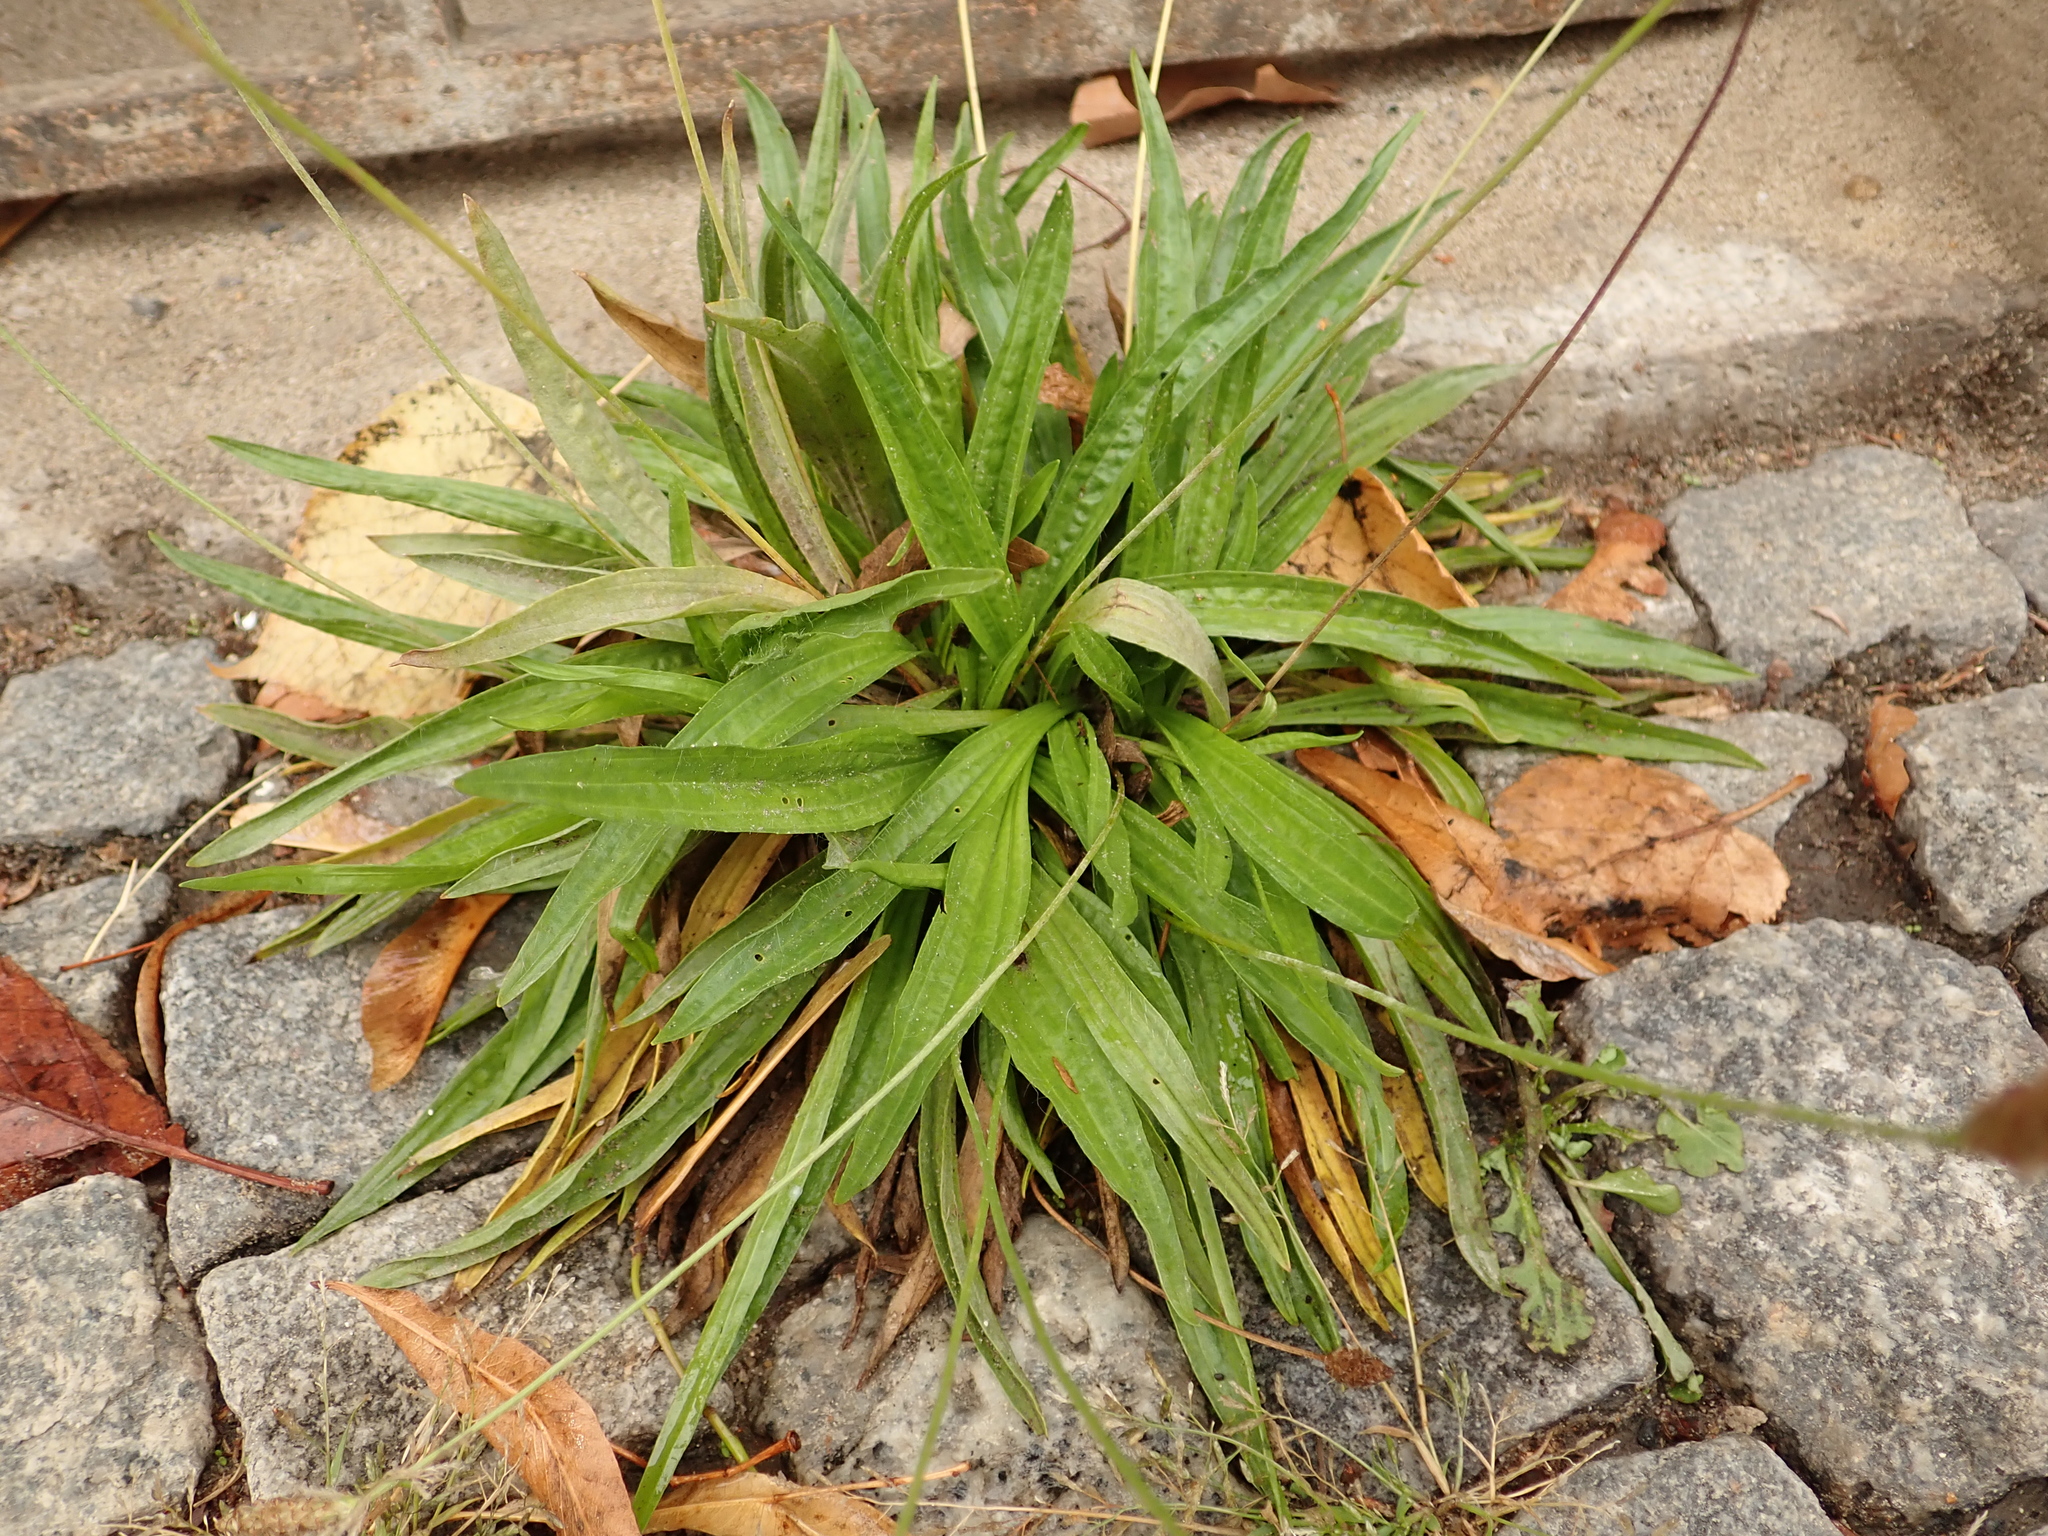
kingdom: Plantae
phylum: Tracheophyta
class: Magnoliopsida
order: Lamiales
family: Plantaginaceae
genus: Plantago
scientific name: Plantago lanceolata
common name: Ribwort plantain
